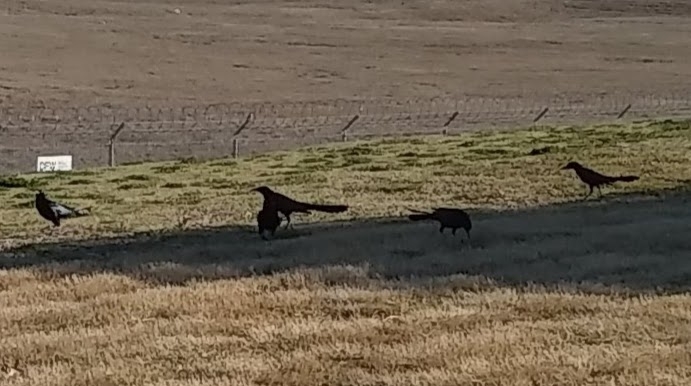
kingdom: Animalia
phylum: Chordata
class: Aves
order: Passeriformes
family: Icteridae
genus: Quiscalus
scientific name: Quiscalus mexicanus
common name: Great-tailed grackle
